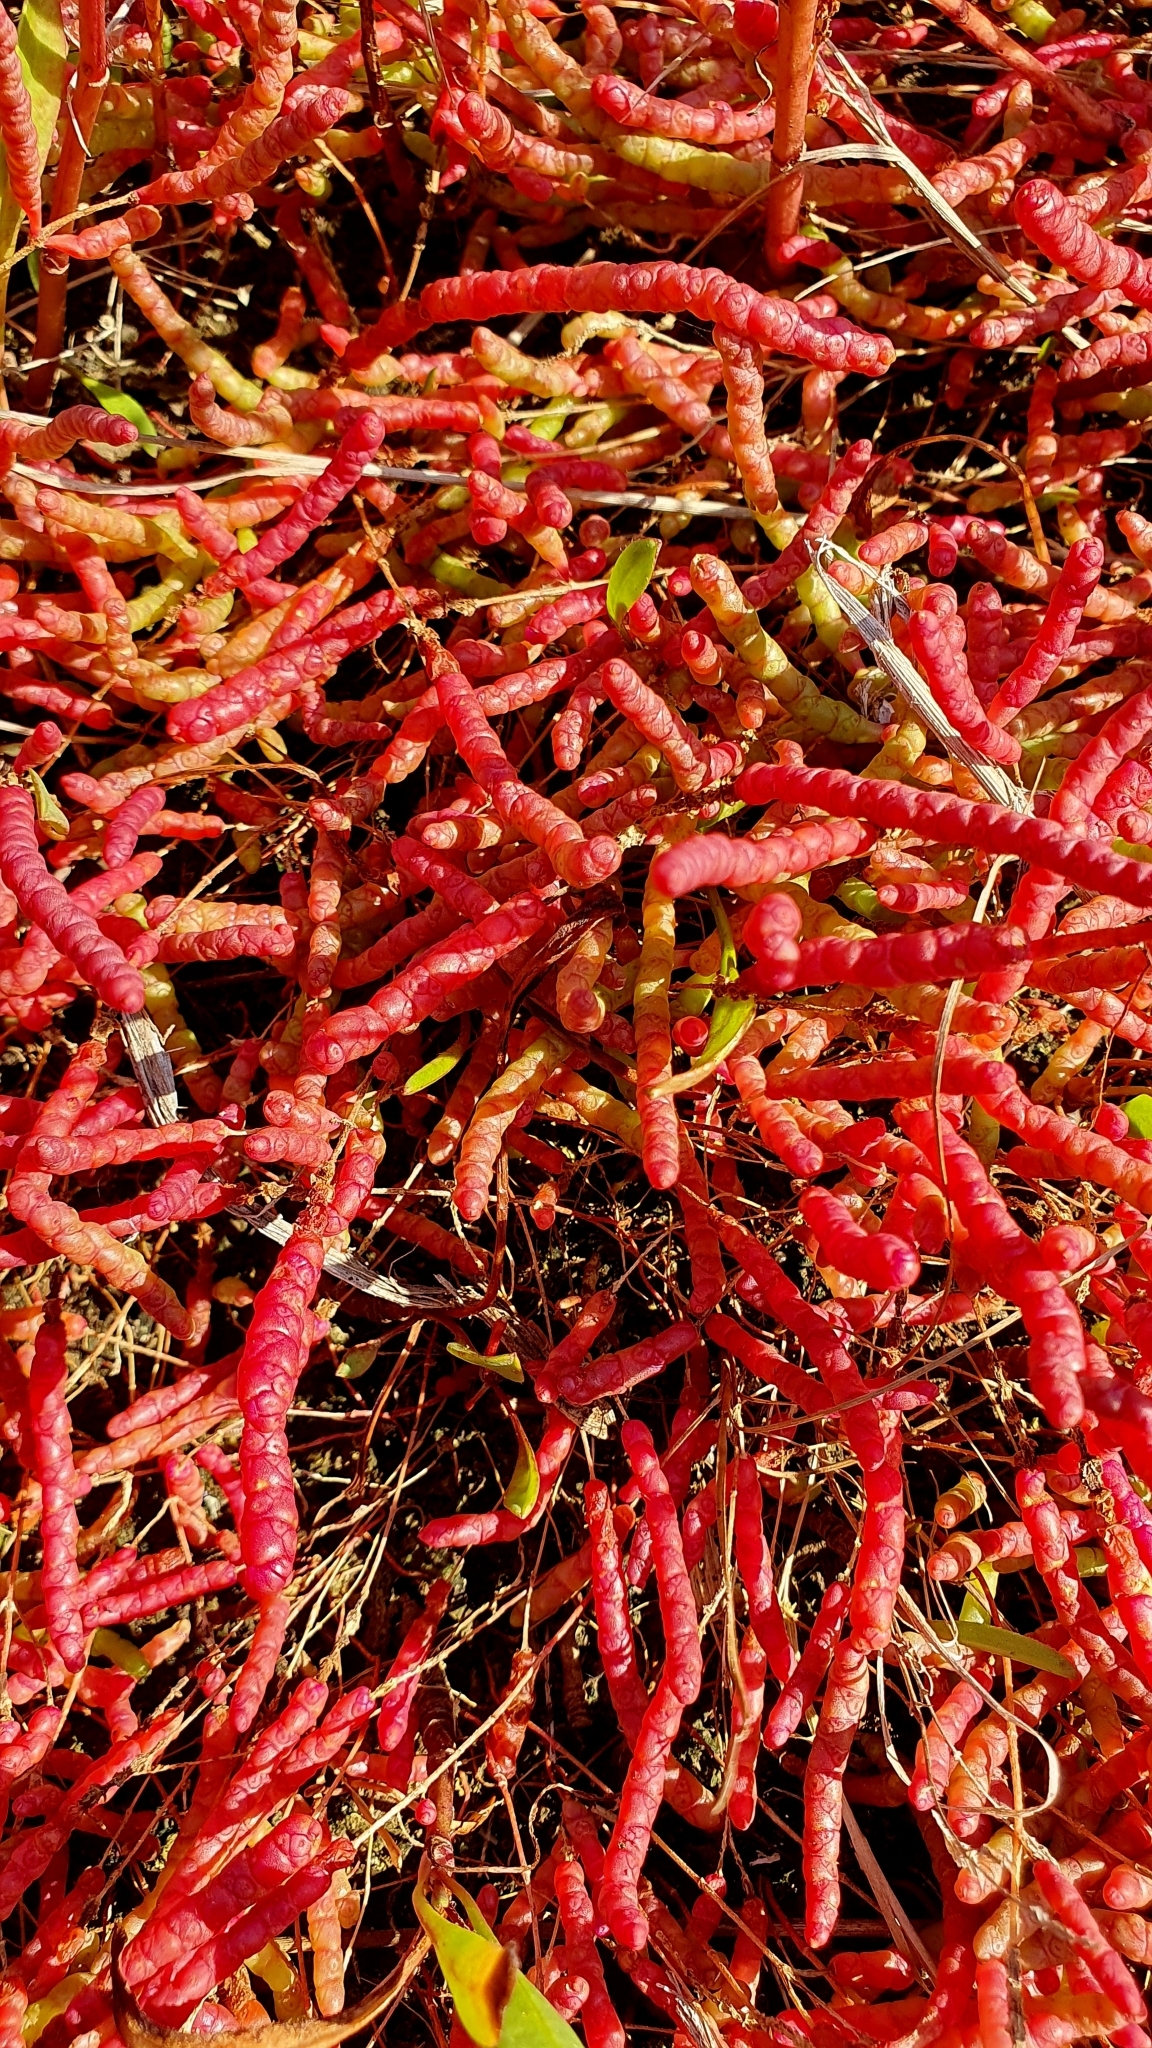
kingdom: Plantae
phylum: Tracheophyta
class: Magnoliopsida
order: Caryophyllales
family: Amaranthaceae
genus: Salicornia
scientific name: Salicornia perennans
